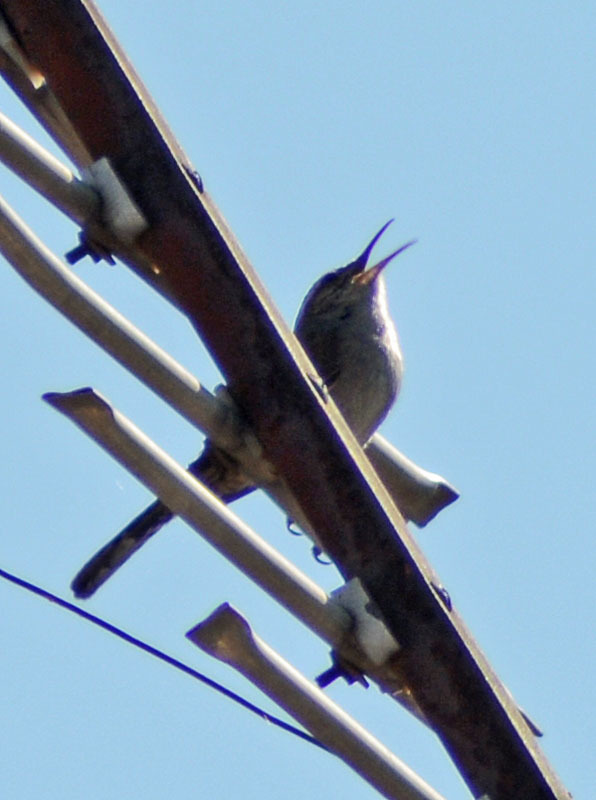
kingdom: Animalia
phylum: Chordata
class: Aves
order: Passeriformes
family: Troglodytidae
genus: Thryomanes
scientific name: Thryomanes bewickii
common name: Bewick's wren
